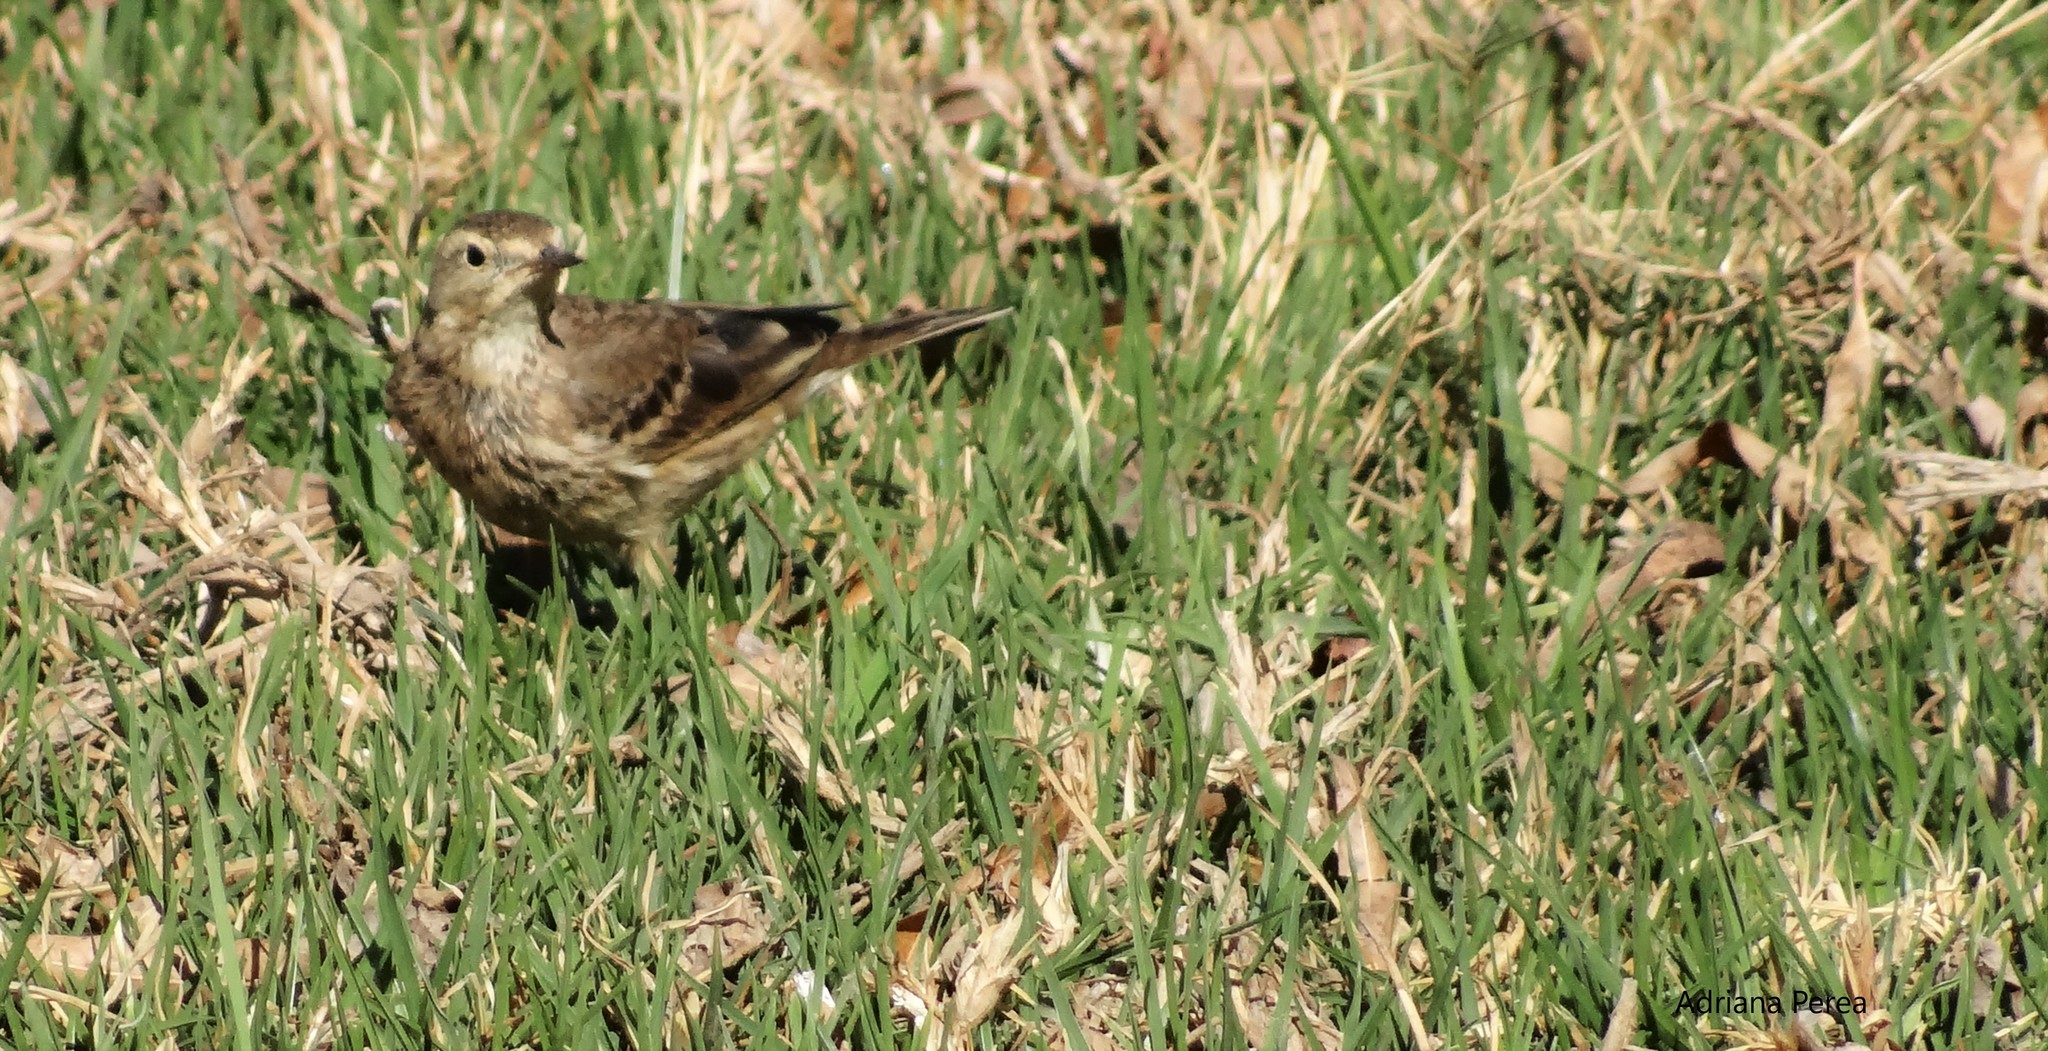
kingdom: Animalia
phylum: Chordata
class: Aves
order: Passeriformes
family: Motacillidae
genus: Anthus
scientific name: Anthus rubescens
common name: Buff-bellied pipit
